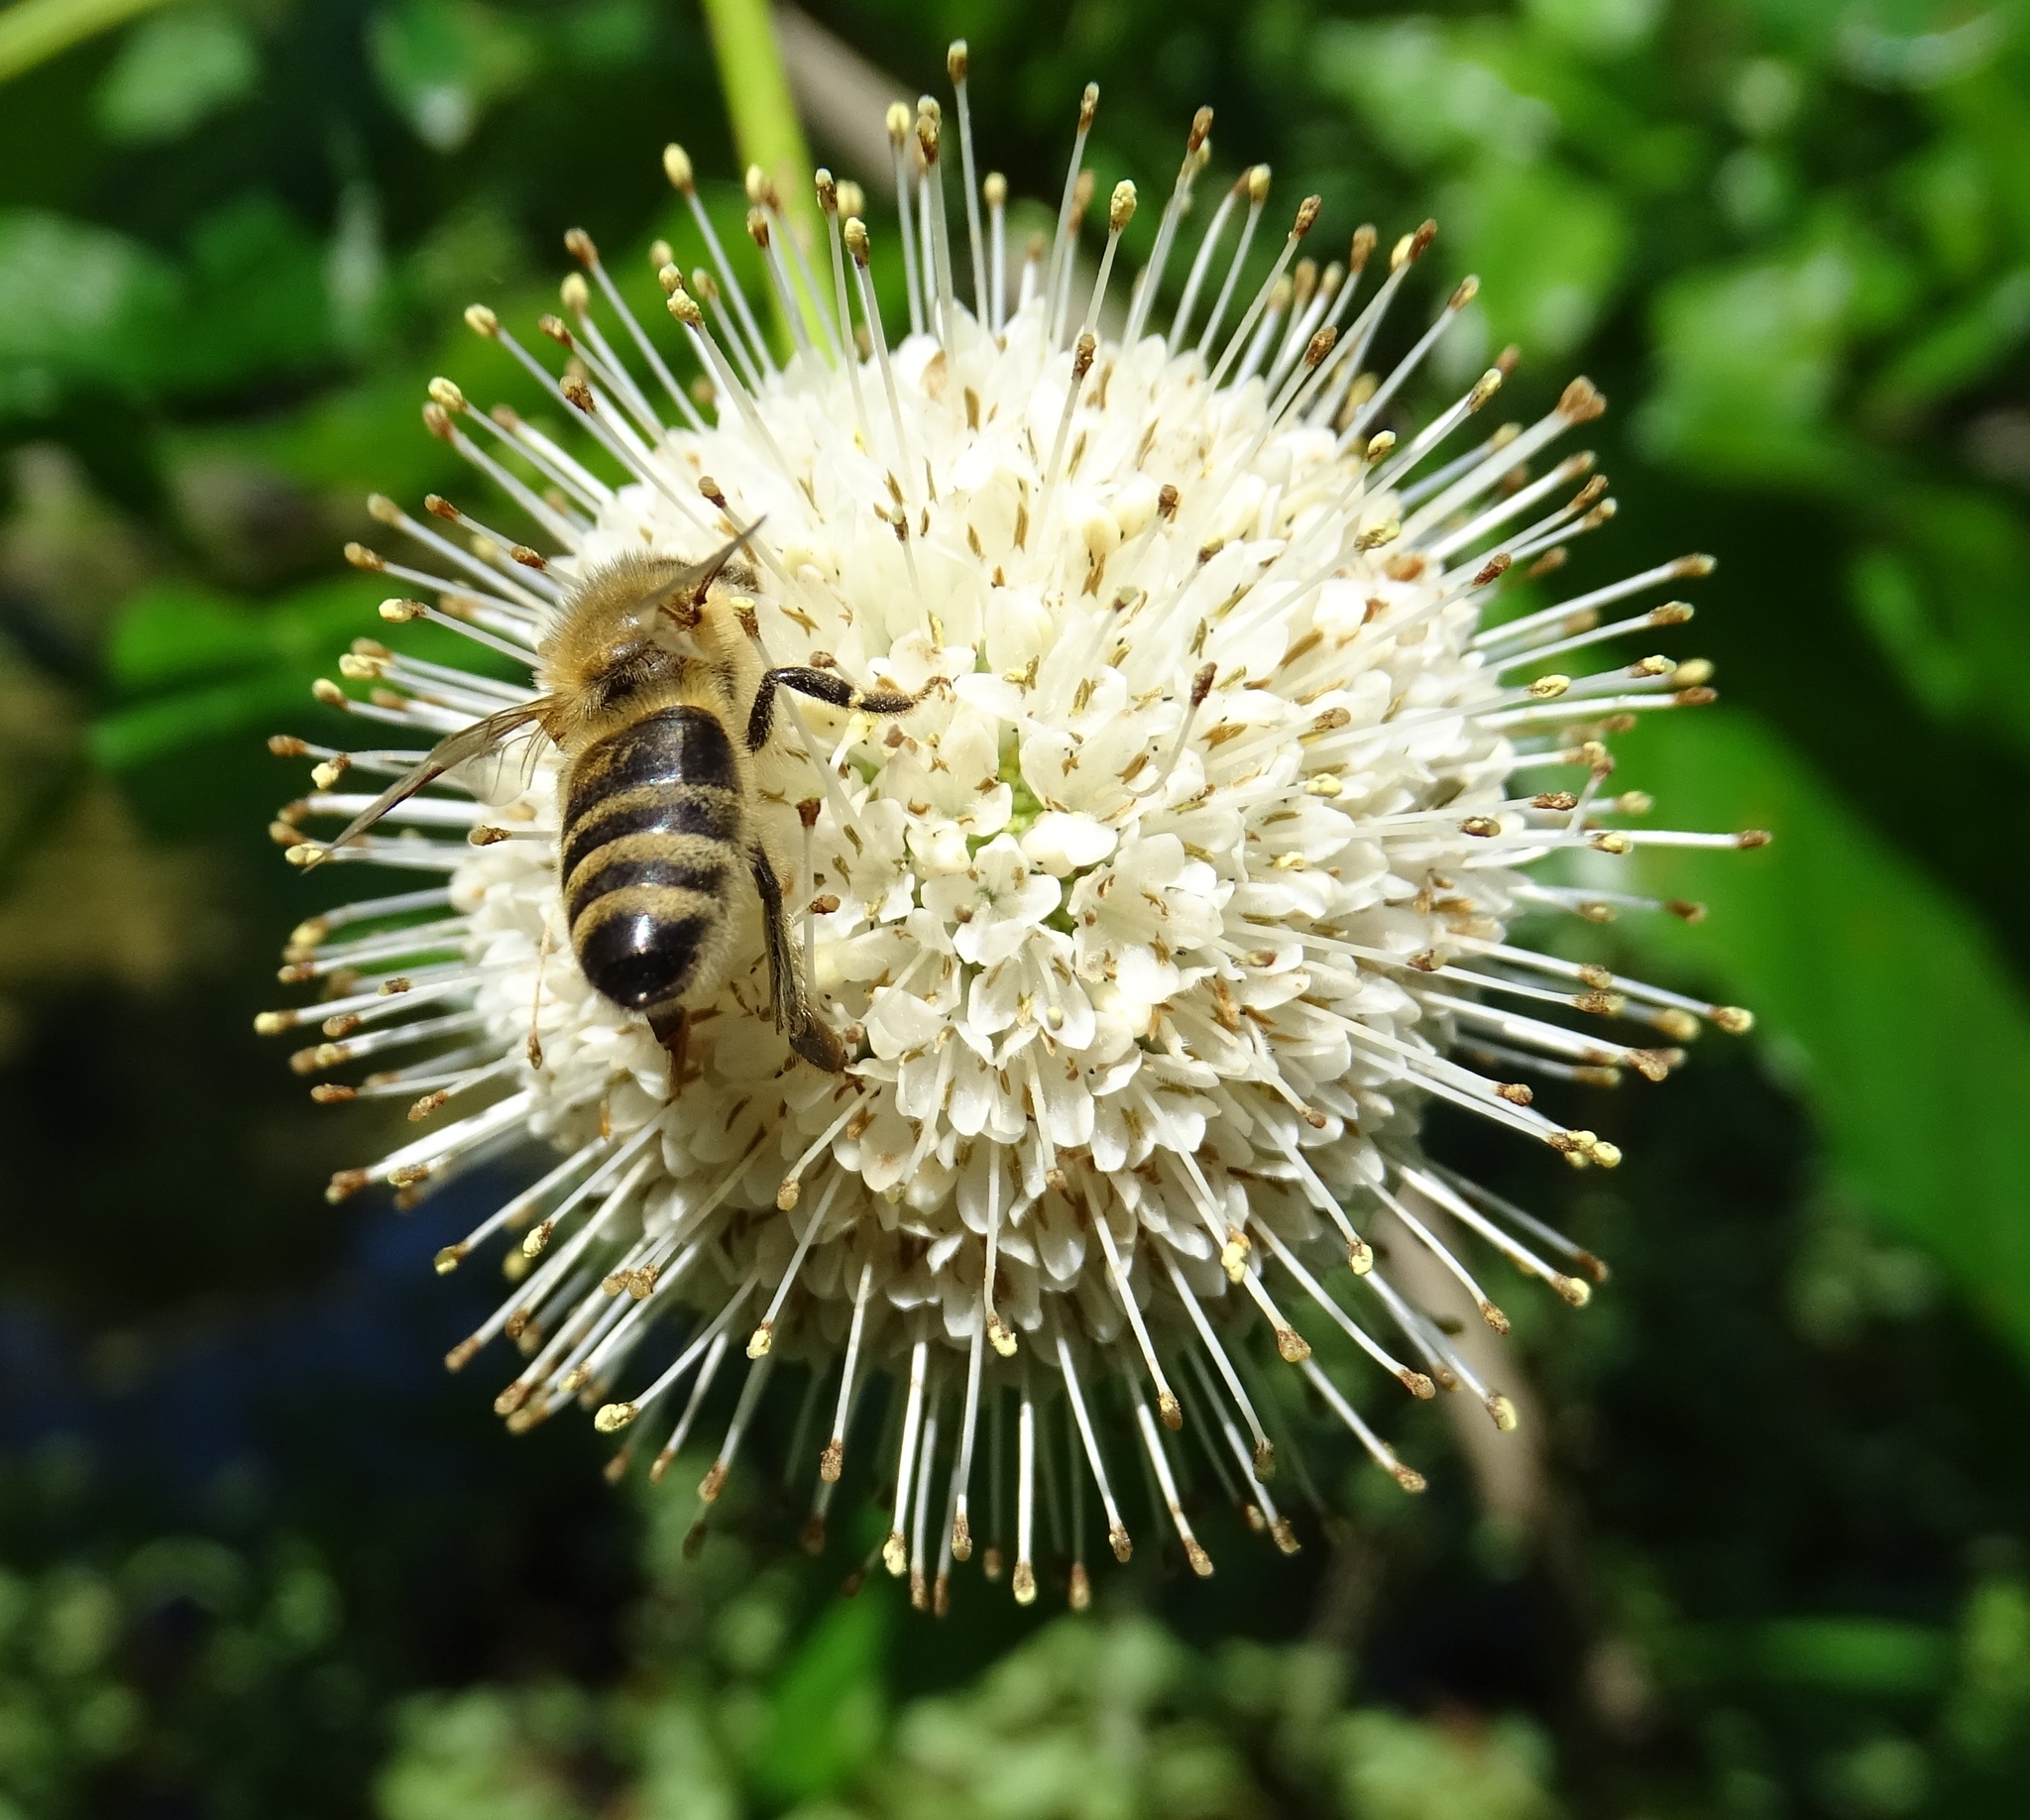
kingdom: Animalia
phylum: Arthropoda
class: Insecta
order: Hymenoptera
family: Apidae
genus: Apis
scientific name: Apis mellifera
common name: Honey bee
